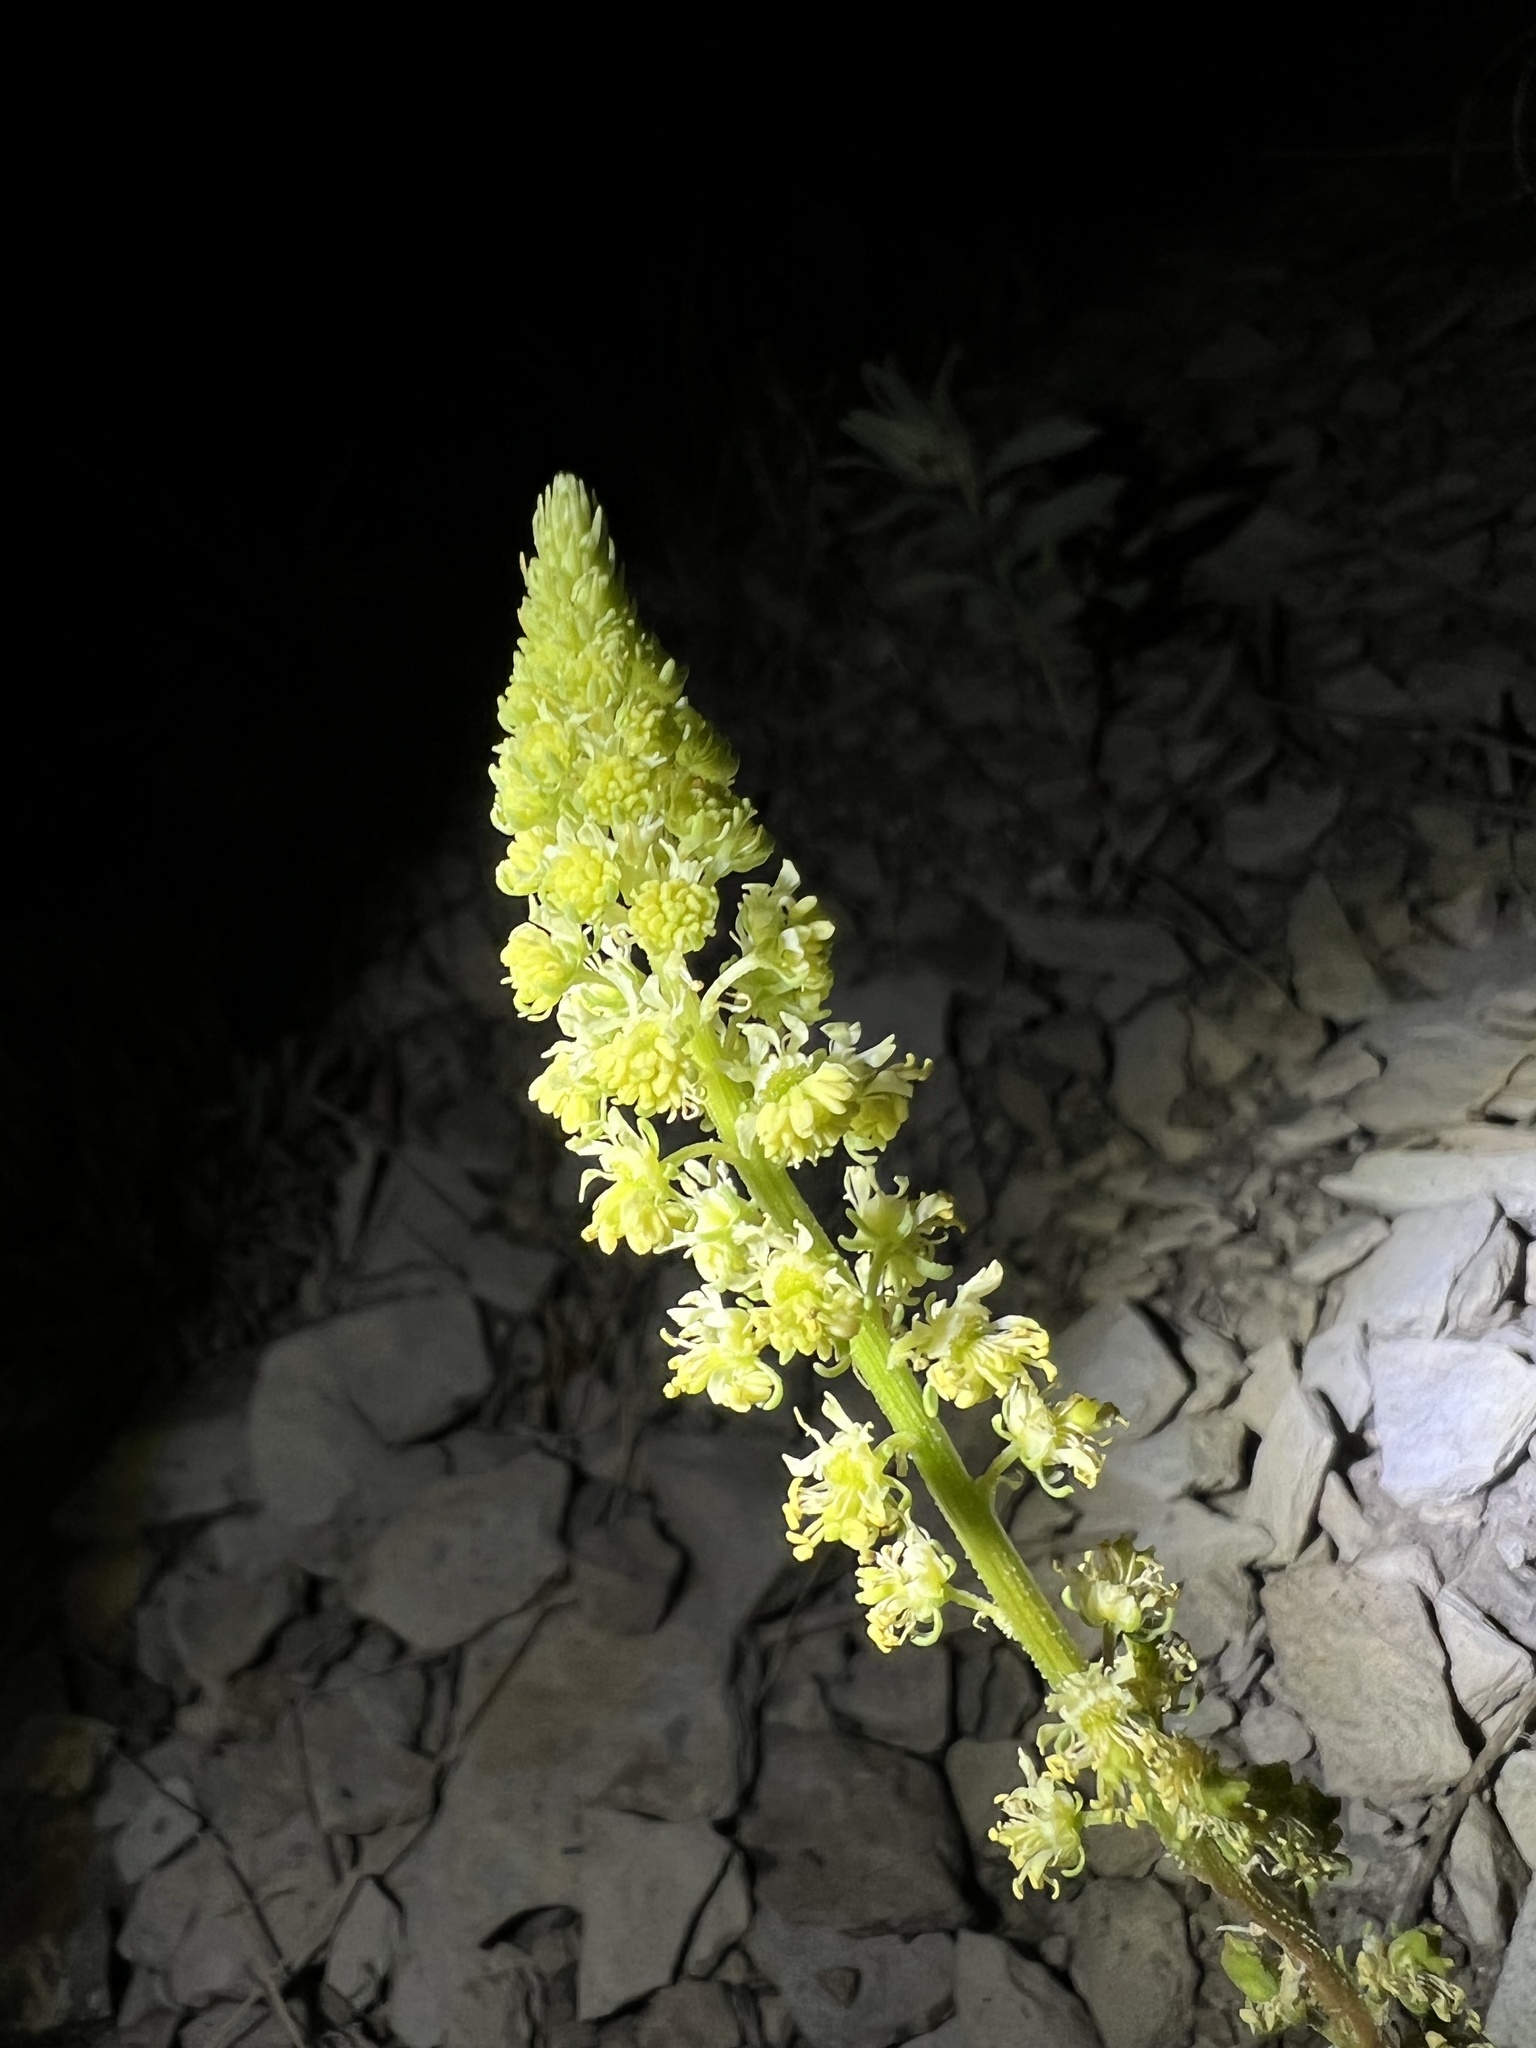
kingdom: Plantae
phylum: Tracheophyta
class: Magnoliopsida
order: Brassicales
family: Resedaceae
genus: Reseda
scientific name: Reseda lutea
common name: Wild mignonette
